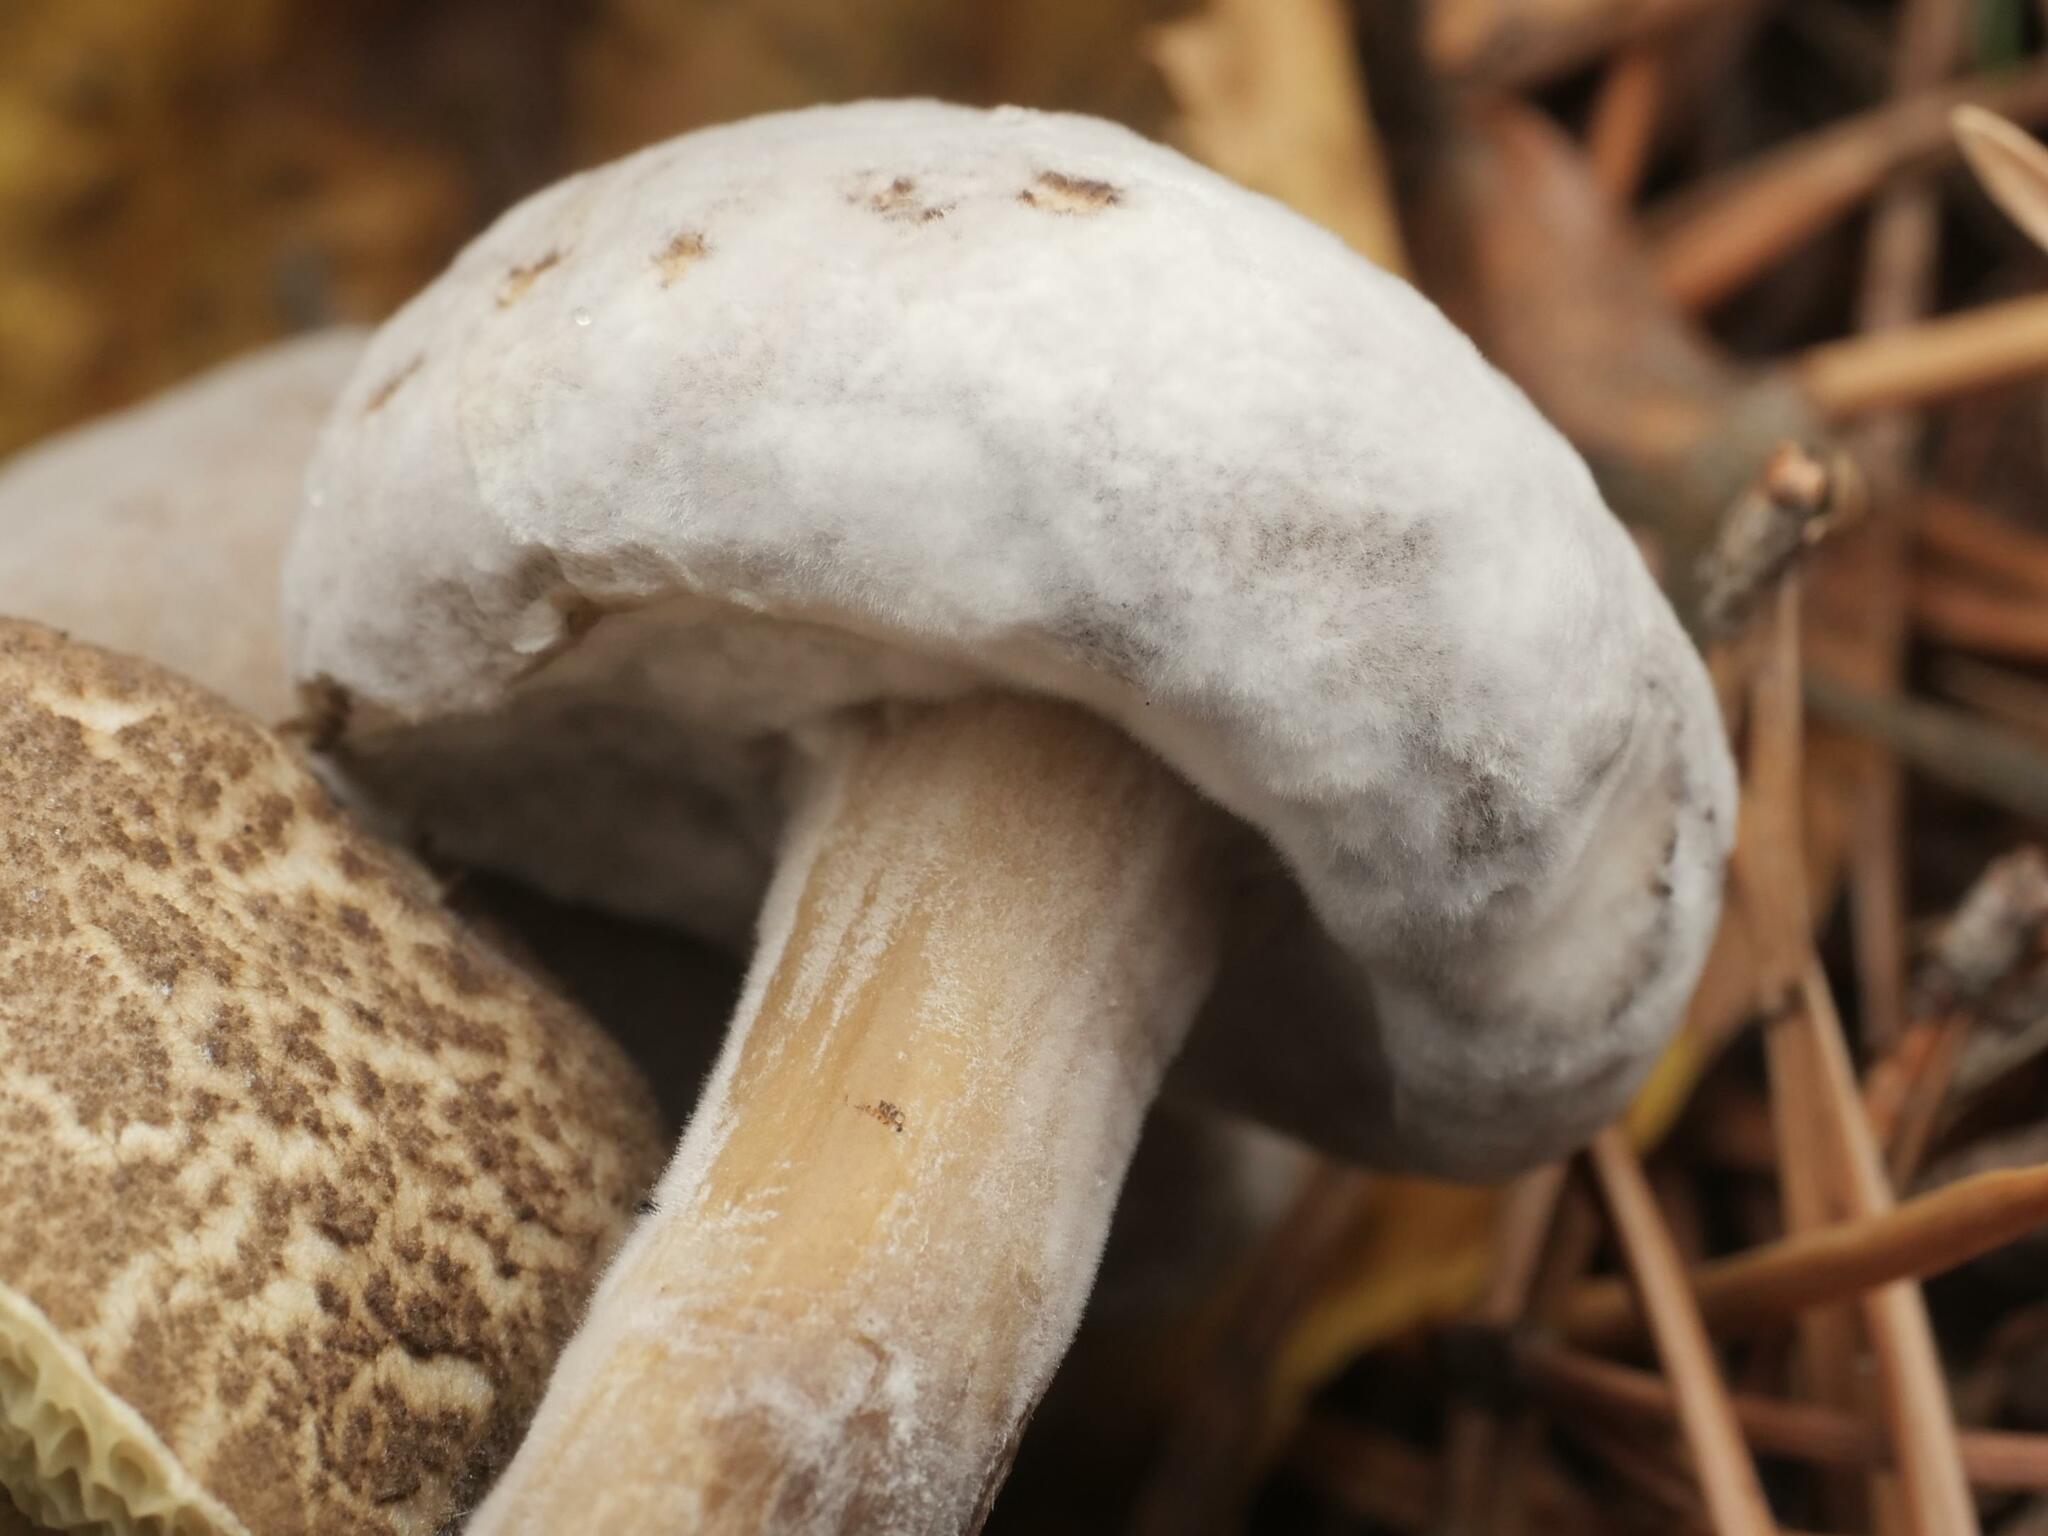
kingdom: Fungi
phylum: Ascomycota
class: Sordariomycetes
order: Hypocreales
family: Hypocreaceae
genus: Hypomyces
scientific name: Hypomyces microspermus
